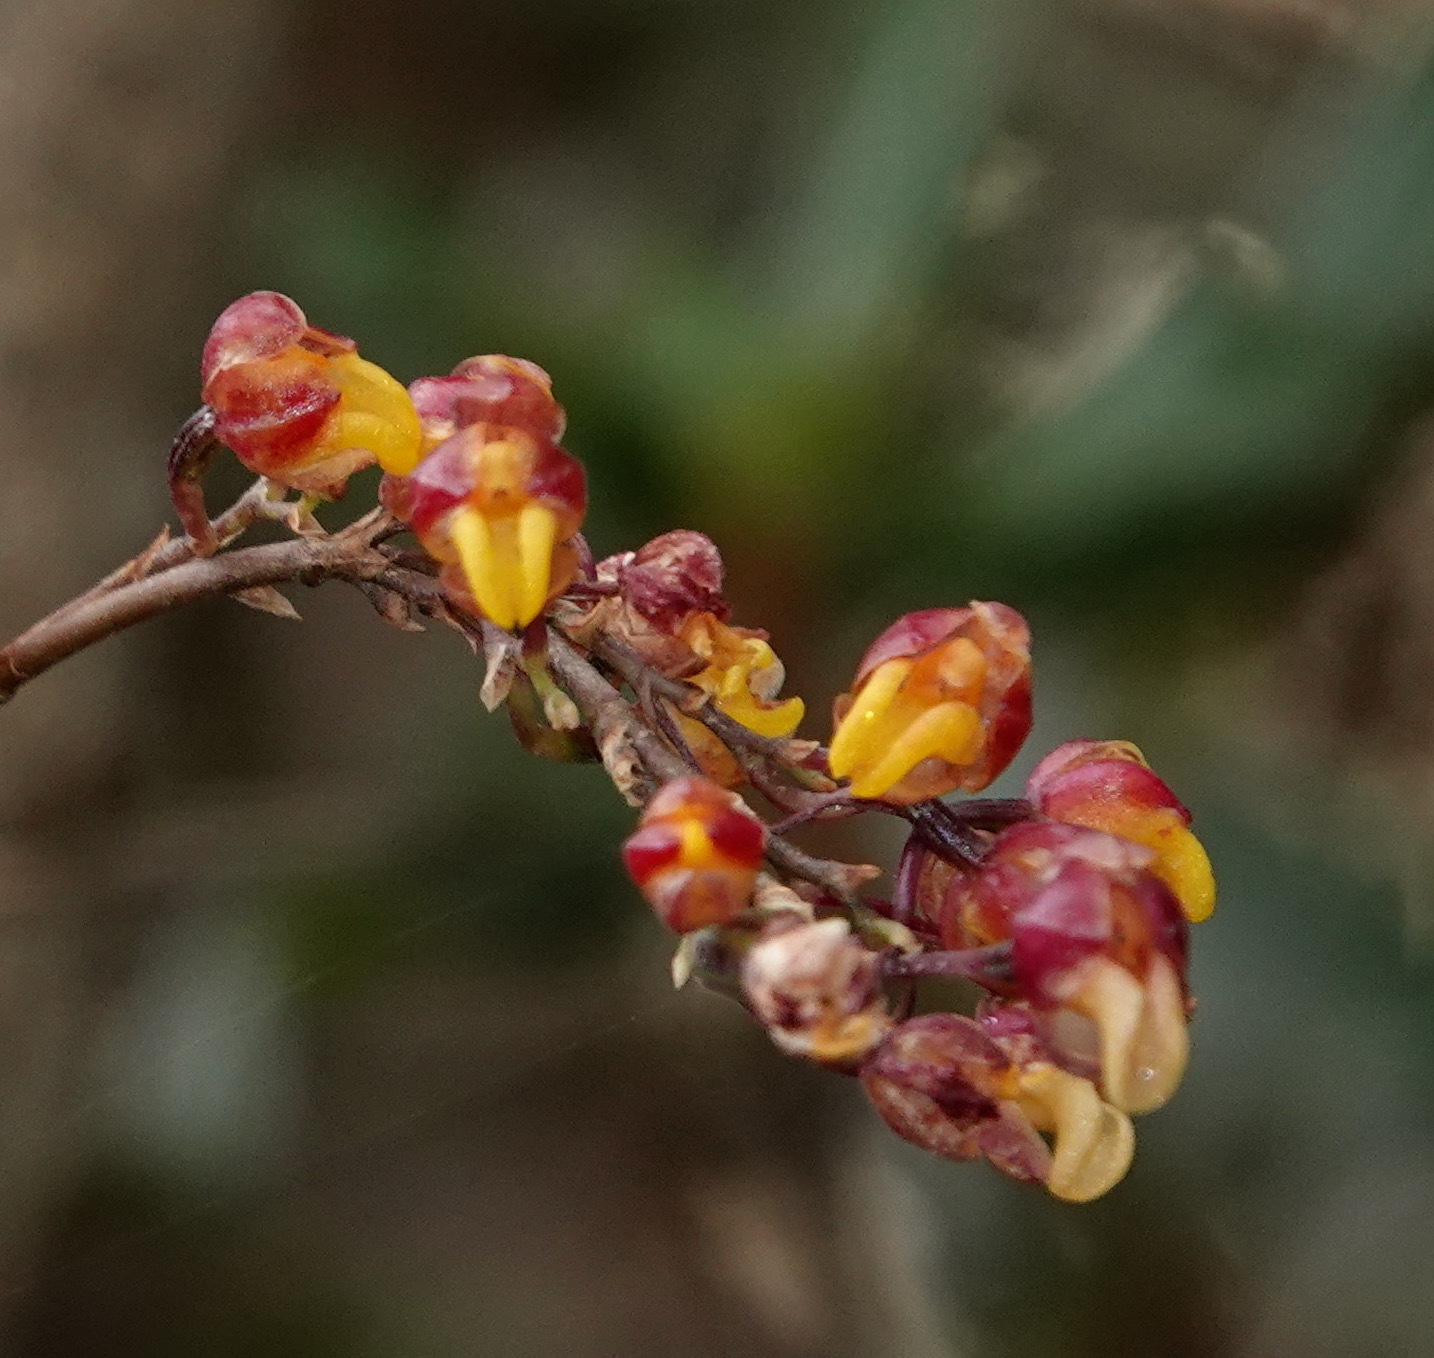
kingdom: Plantae
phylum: Tracheophyta
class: Liliopsida
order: Asparagales
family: Orchidaceae
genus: Cyrtochilum
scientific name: Cyrtochilum rhodoneurum
